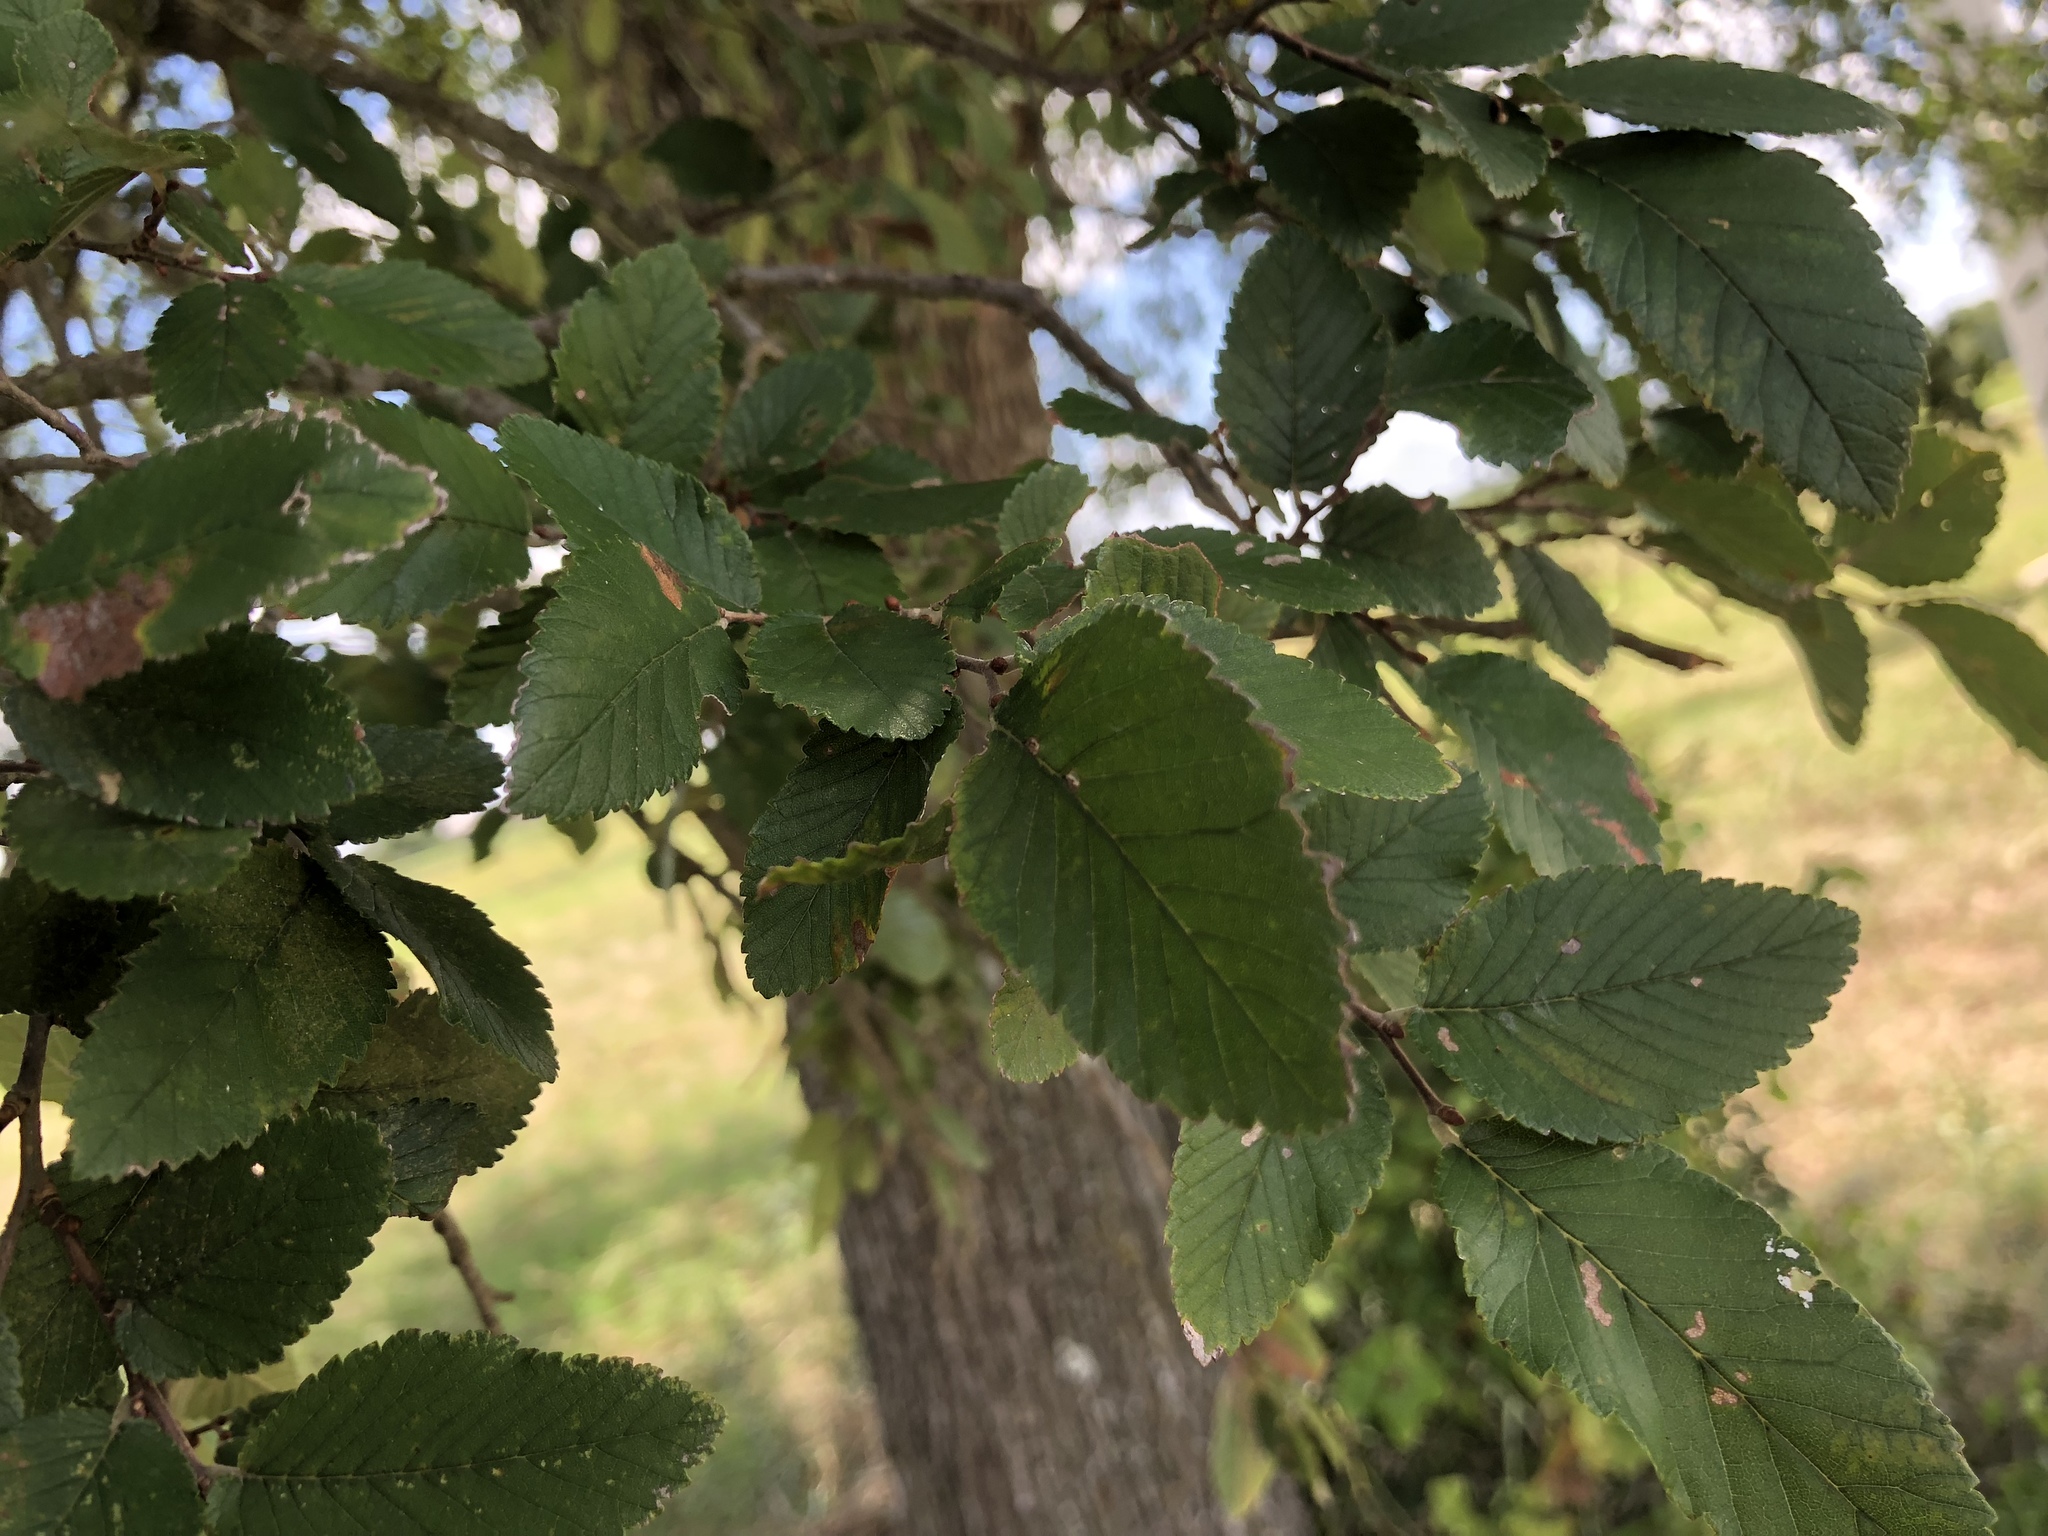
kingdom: Plantae
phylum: Tracheophyta
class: Magnoliopsida
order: Rosales
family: Ulmaceae
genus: Ulmus
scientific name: Ulmus crassifolia
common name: Basket elm
